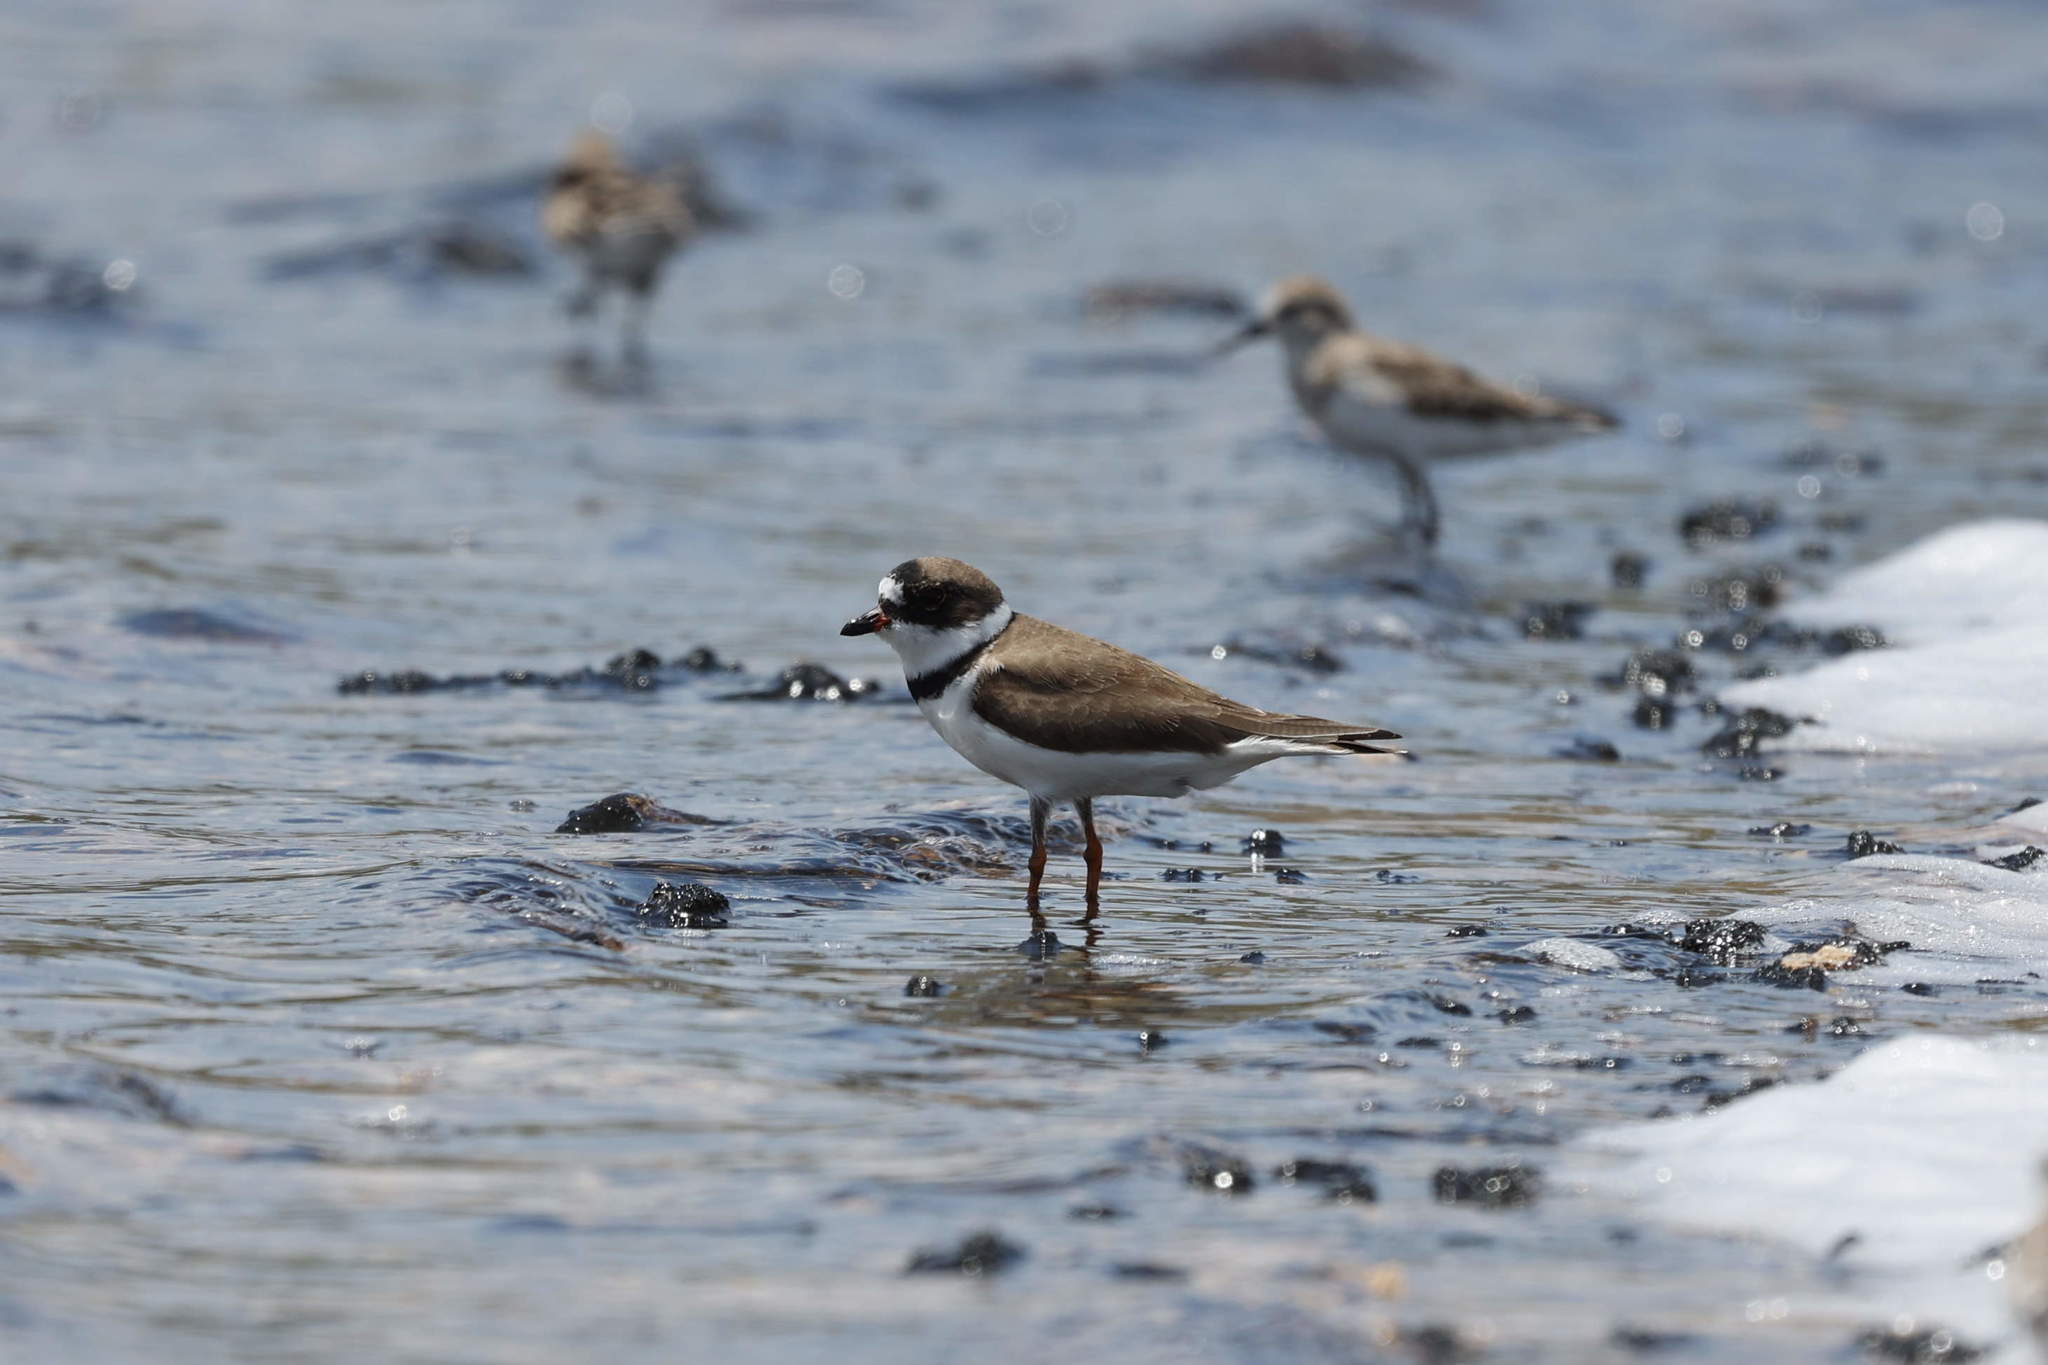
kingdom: Animalia
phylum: Chordata
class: Aves
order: Charadriiformes
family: Charadriidae
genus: Charadrius
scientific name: Charadrius semipalmatus
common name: Semipalmated plover
